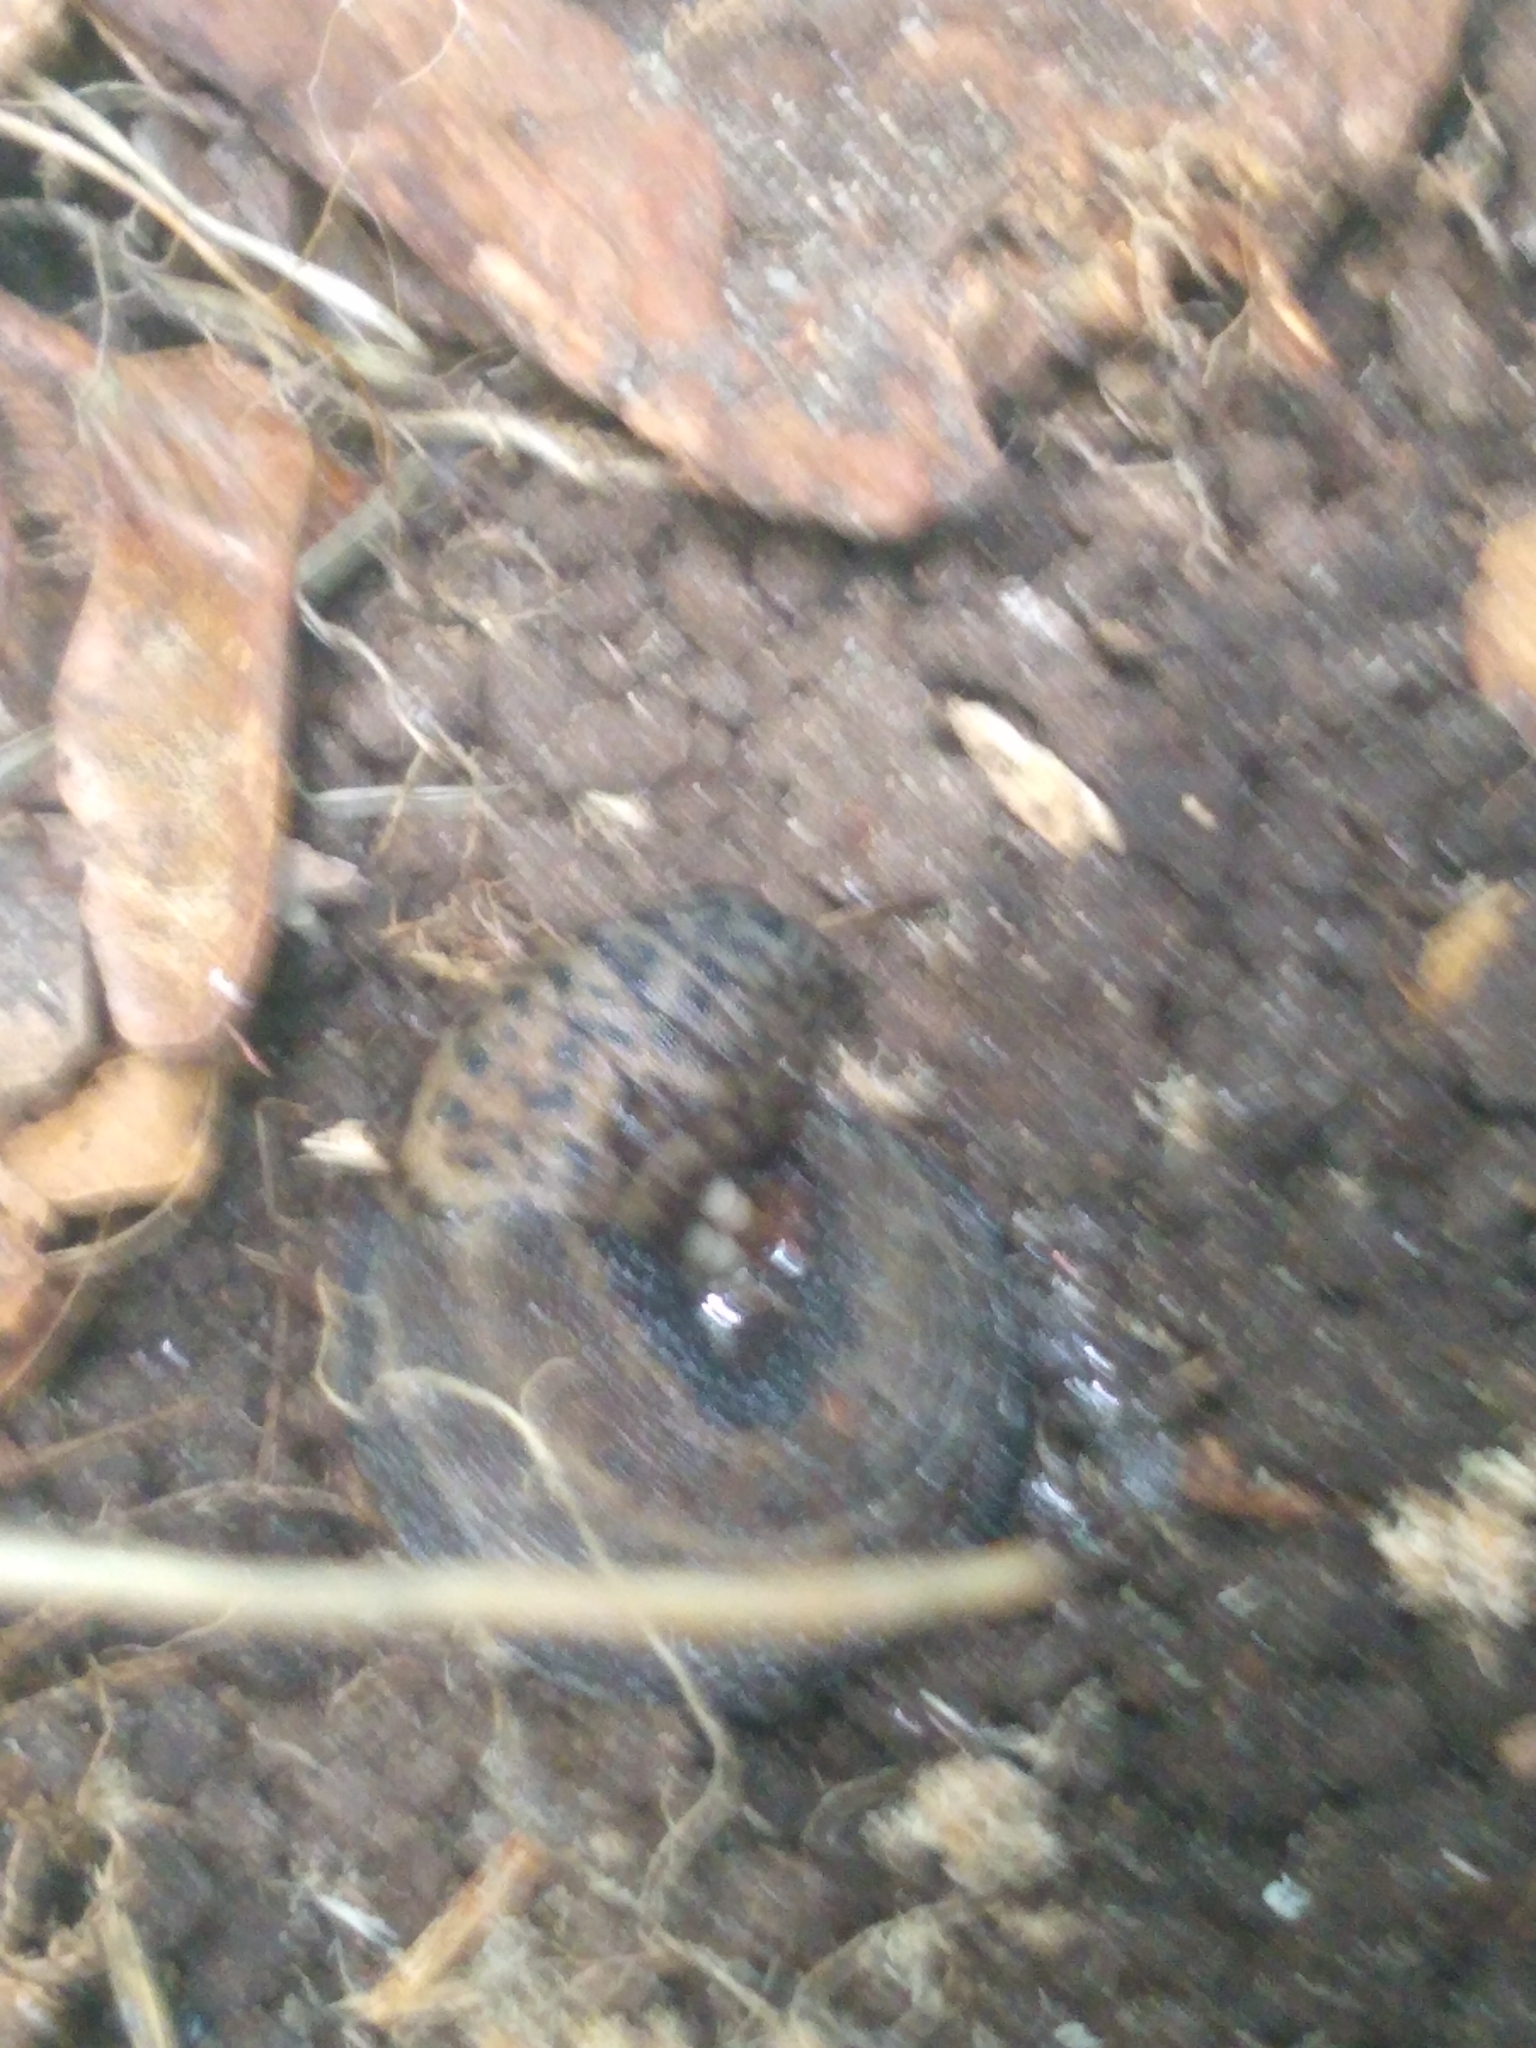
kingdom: Animalia
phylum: Mollusca
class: Gastropoda
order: Stylommatophora
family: Limacidae
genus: Limax
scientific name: Limax maximus
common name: Great grey slug
